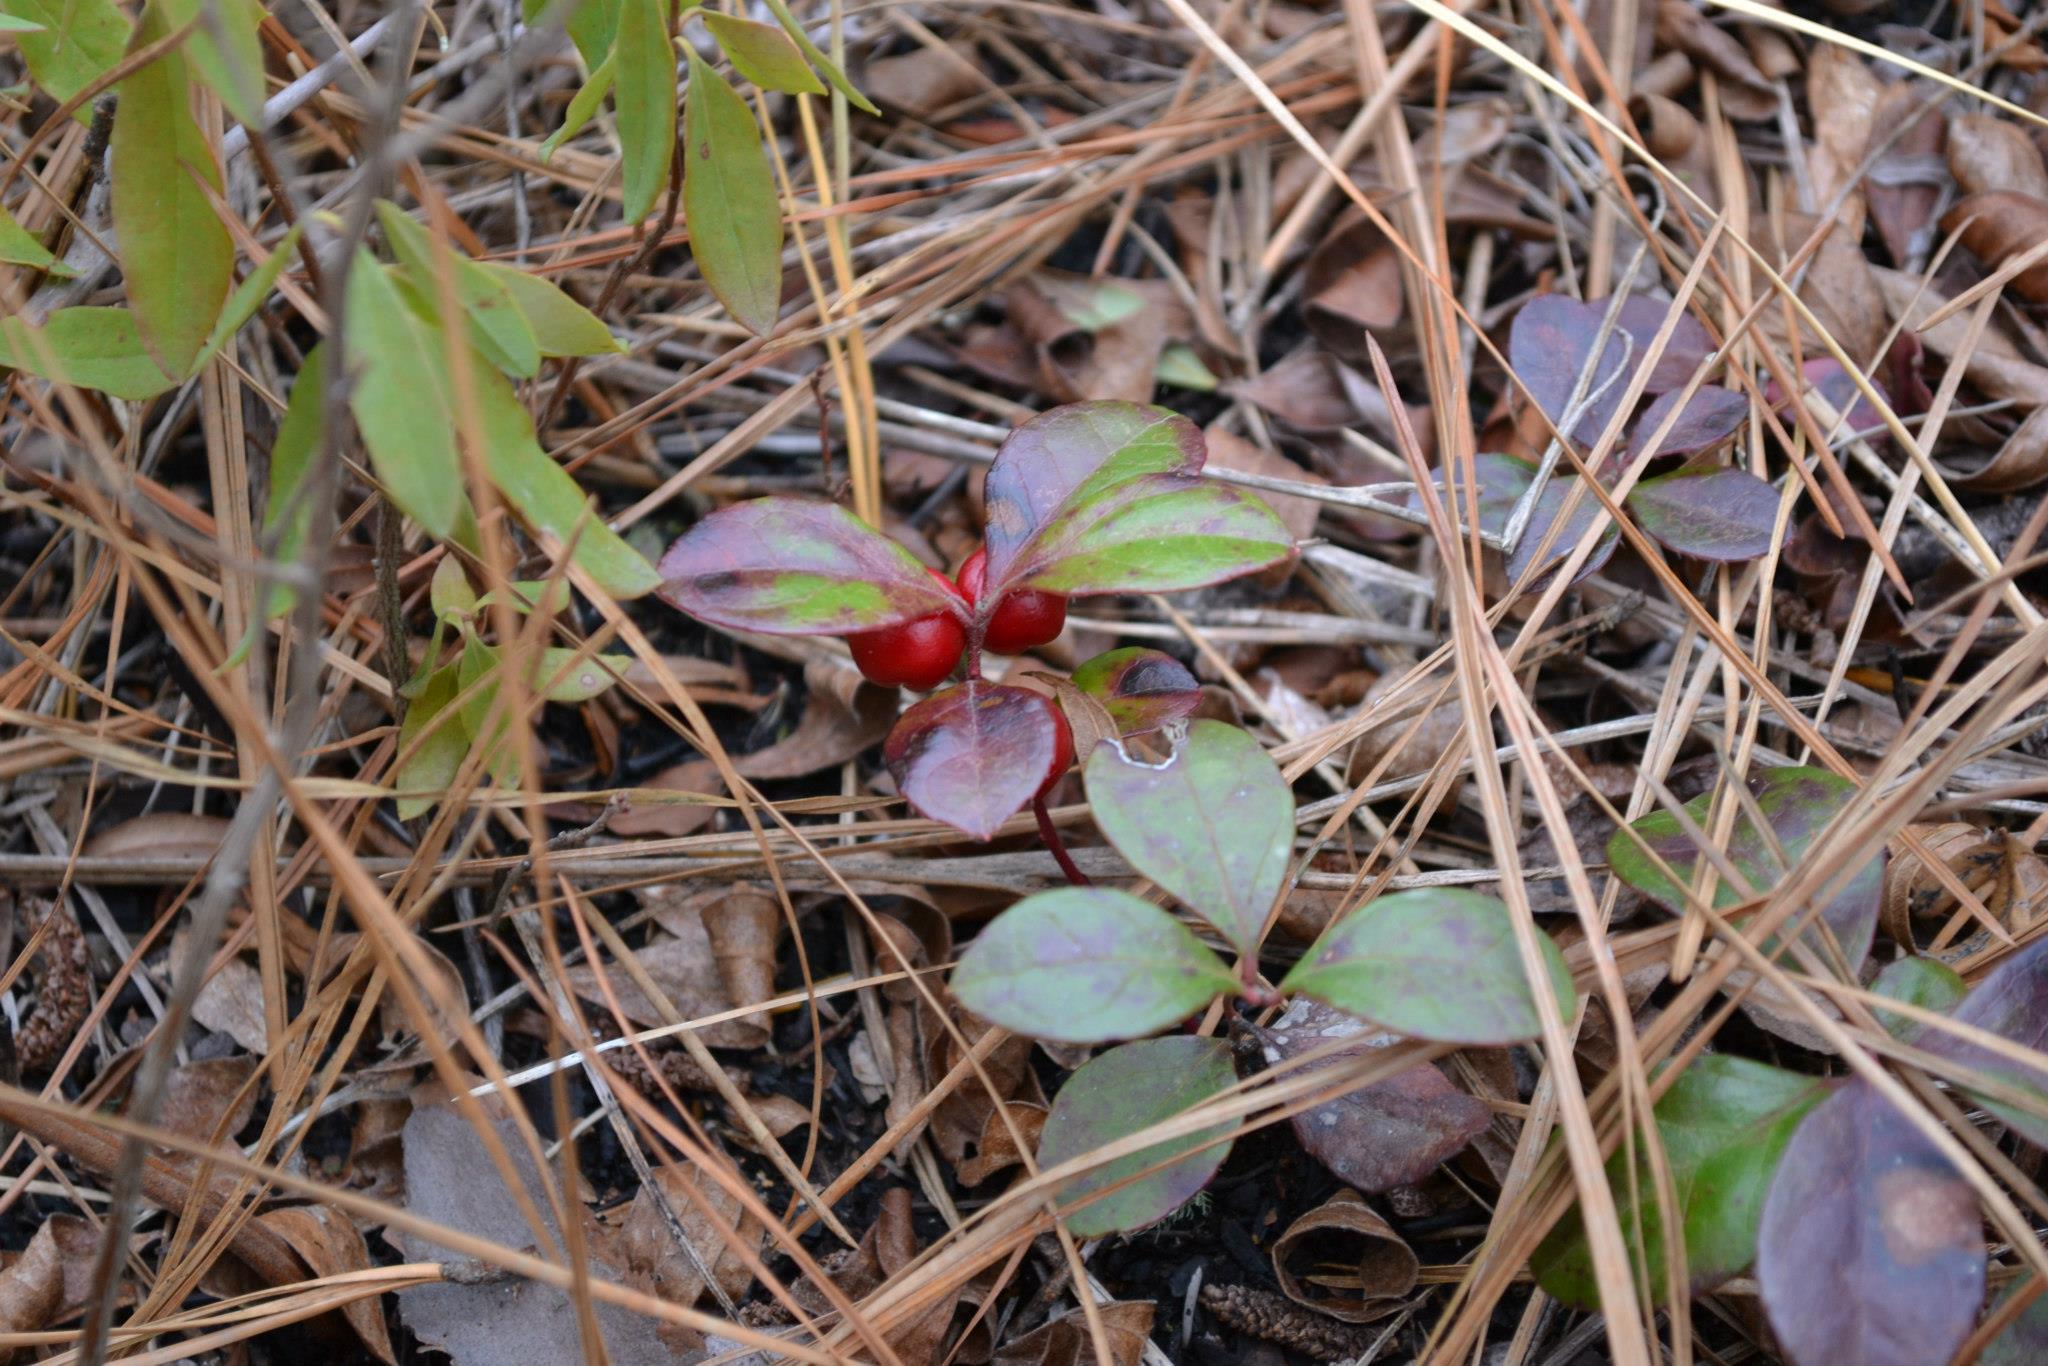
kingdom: Plantae
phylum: Tracheophyta
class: Magnoliopsida
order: Ericales
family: Ericaceae
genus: Gaultheria
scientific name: Gaultheria procumbens
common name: Checkerberry
